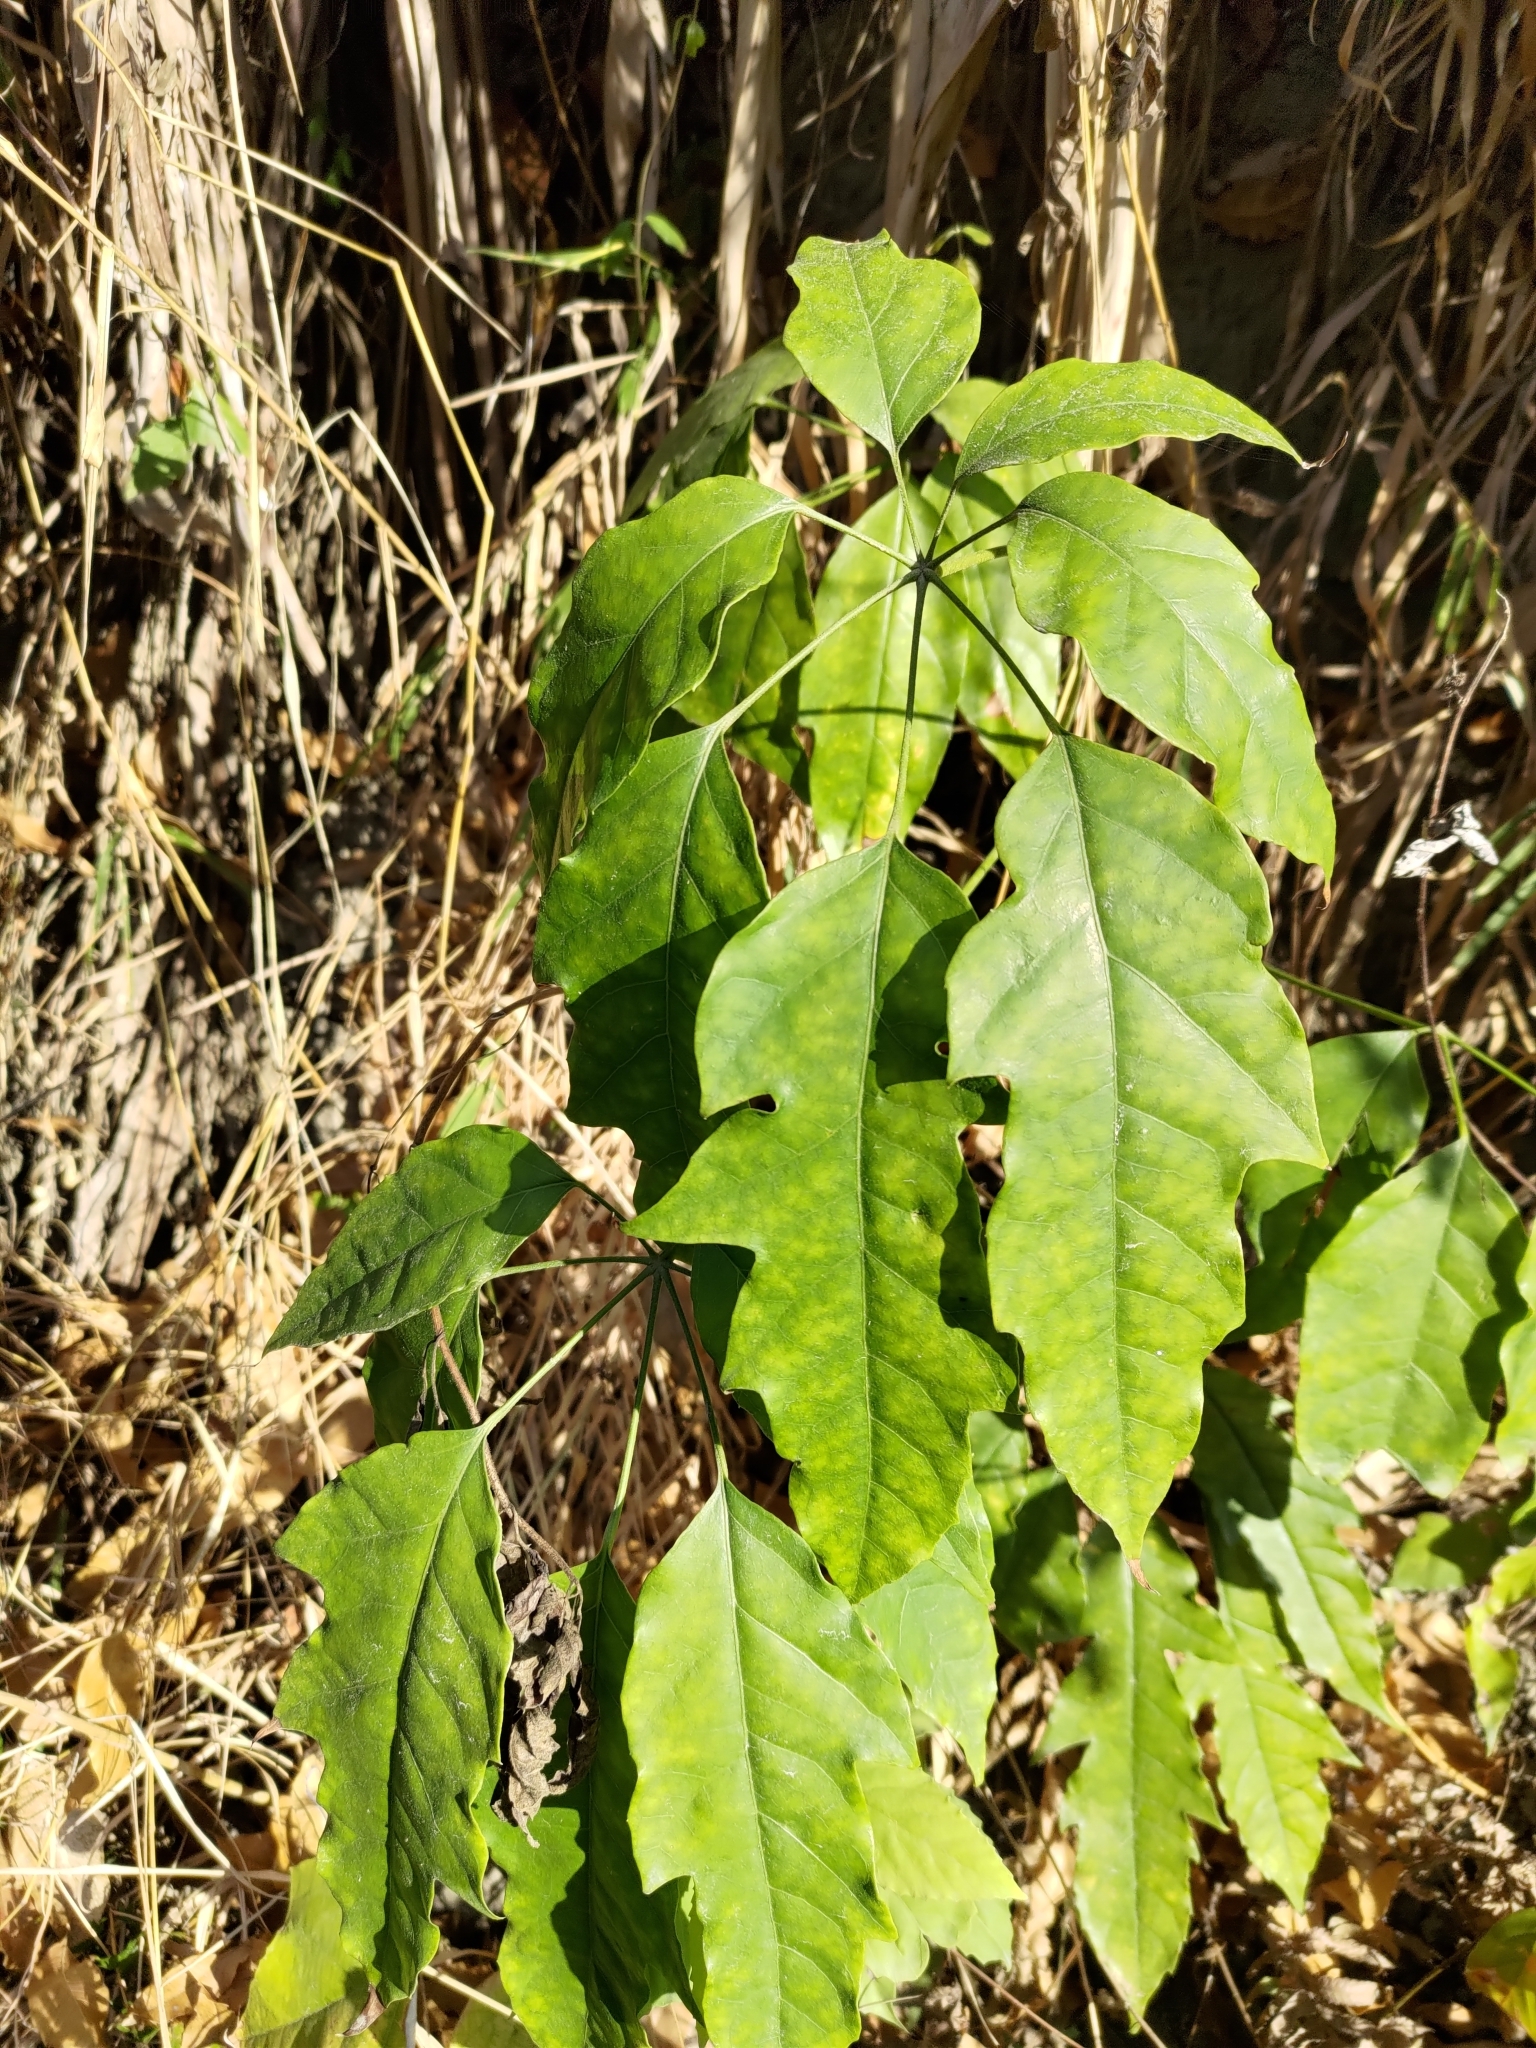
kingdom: Plantae
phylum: Tracheophyta
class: Magnoliopsida
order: Apiales
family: Araliaceae
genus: Heptapleurum
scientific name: Heptapleurum heptaphyllum
